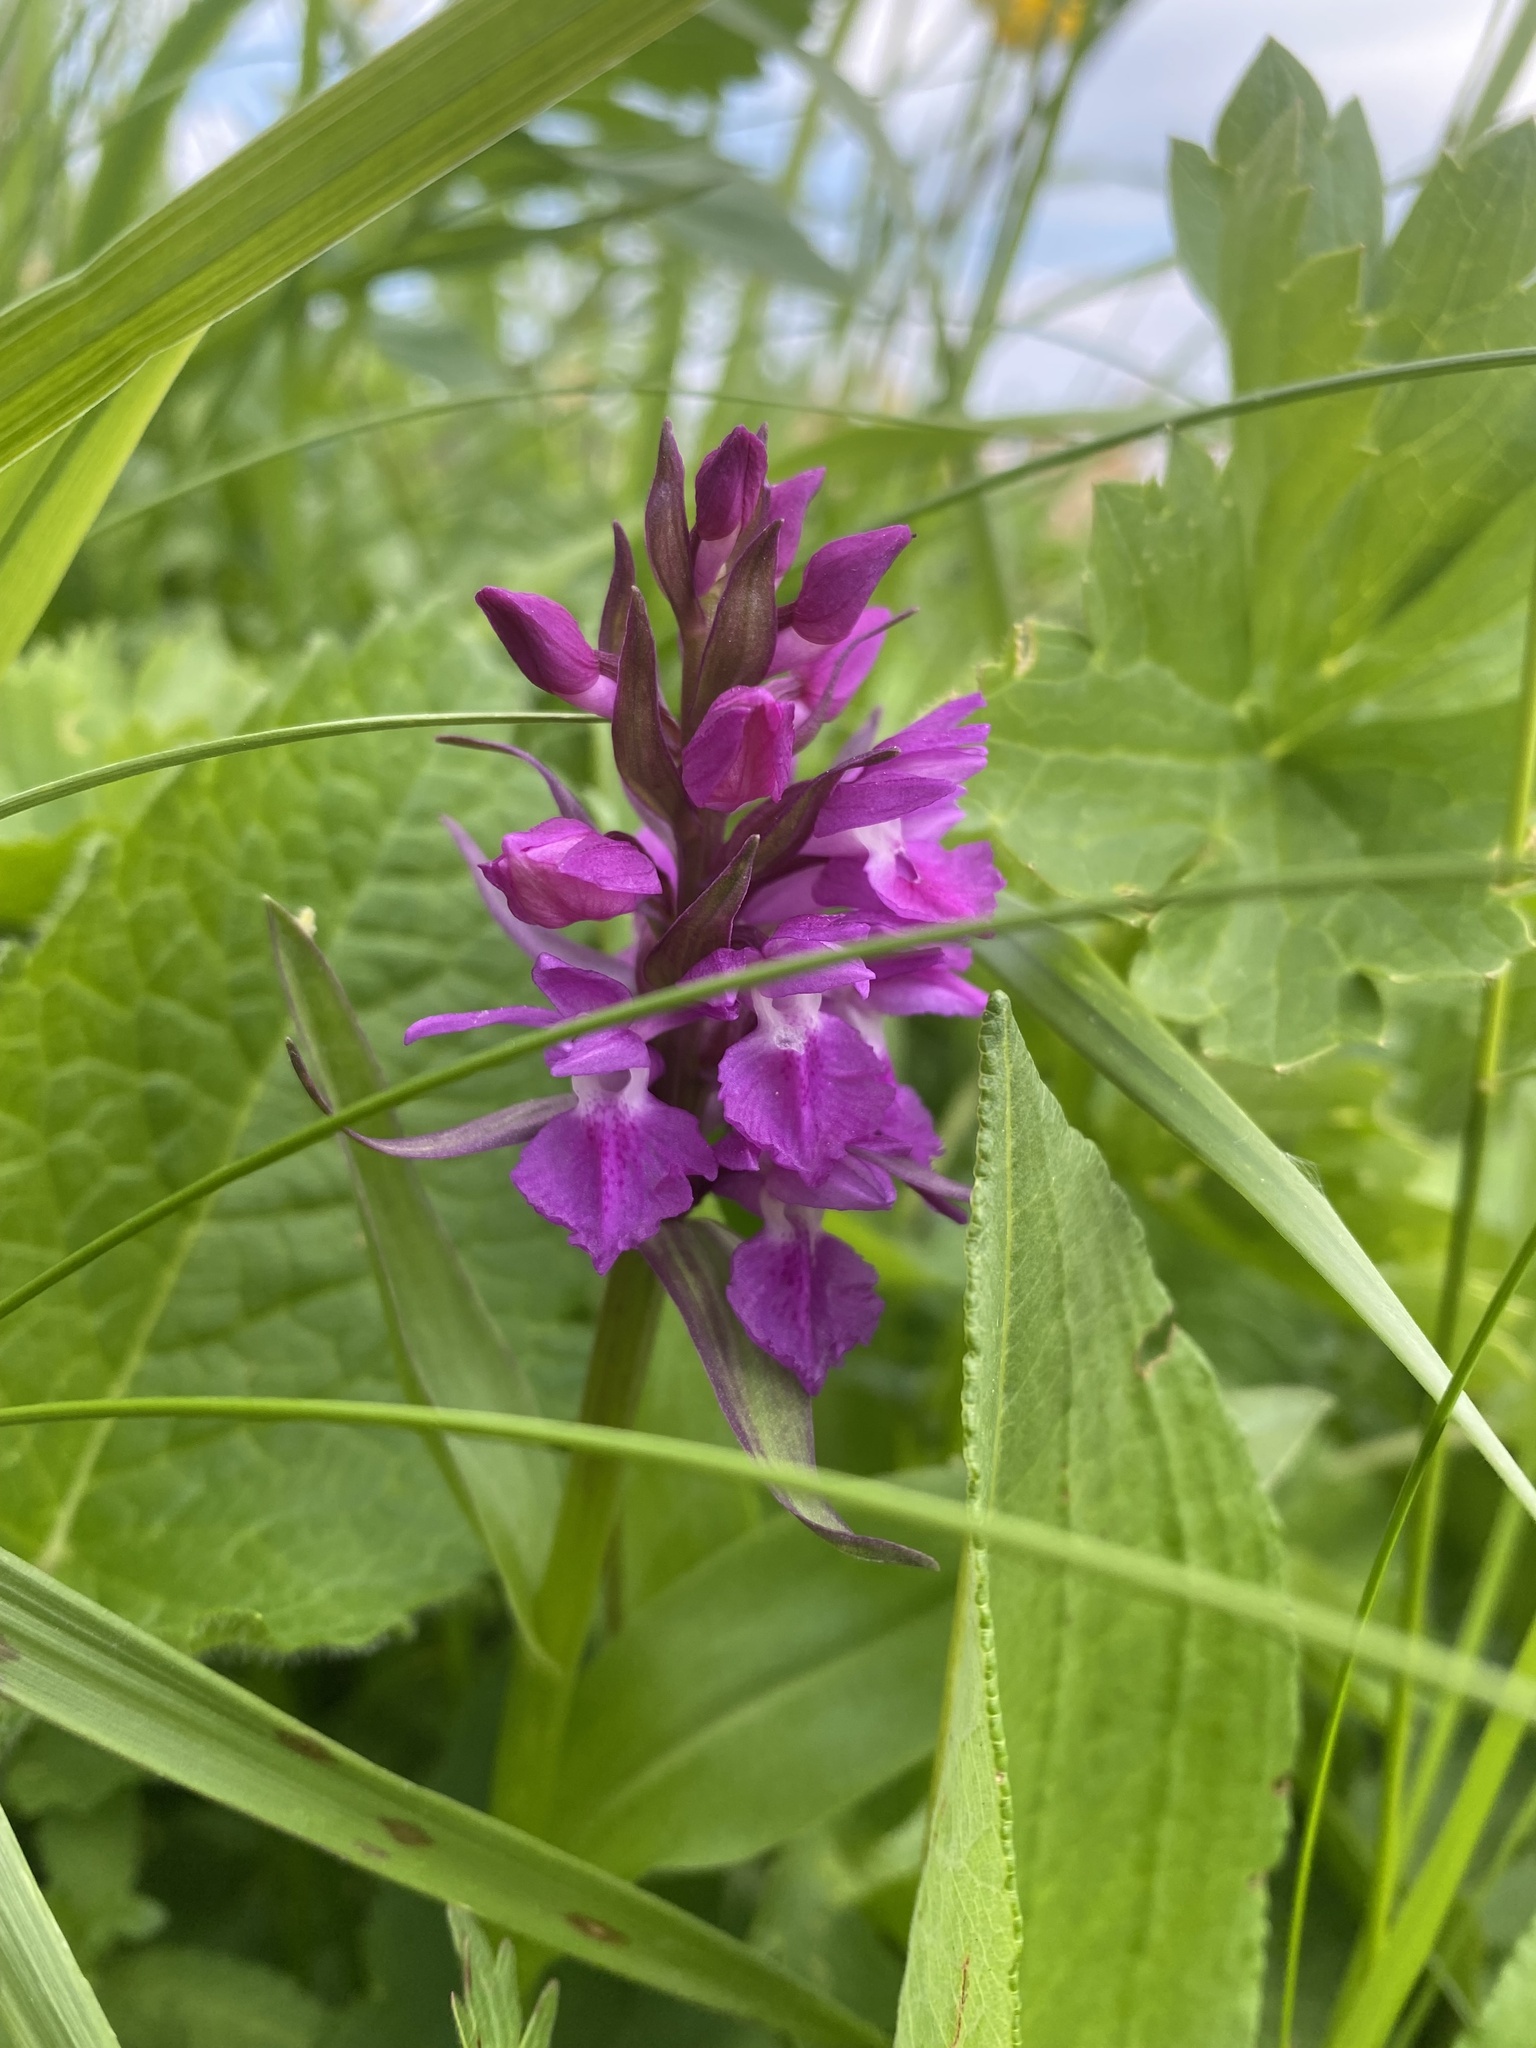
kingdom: Plantae
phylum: Tracheophyta
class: Liliopsida
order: Asparagales
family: Orchidaceae
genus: Dactylorhiza
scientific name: Dactylorhiza euxina
